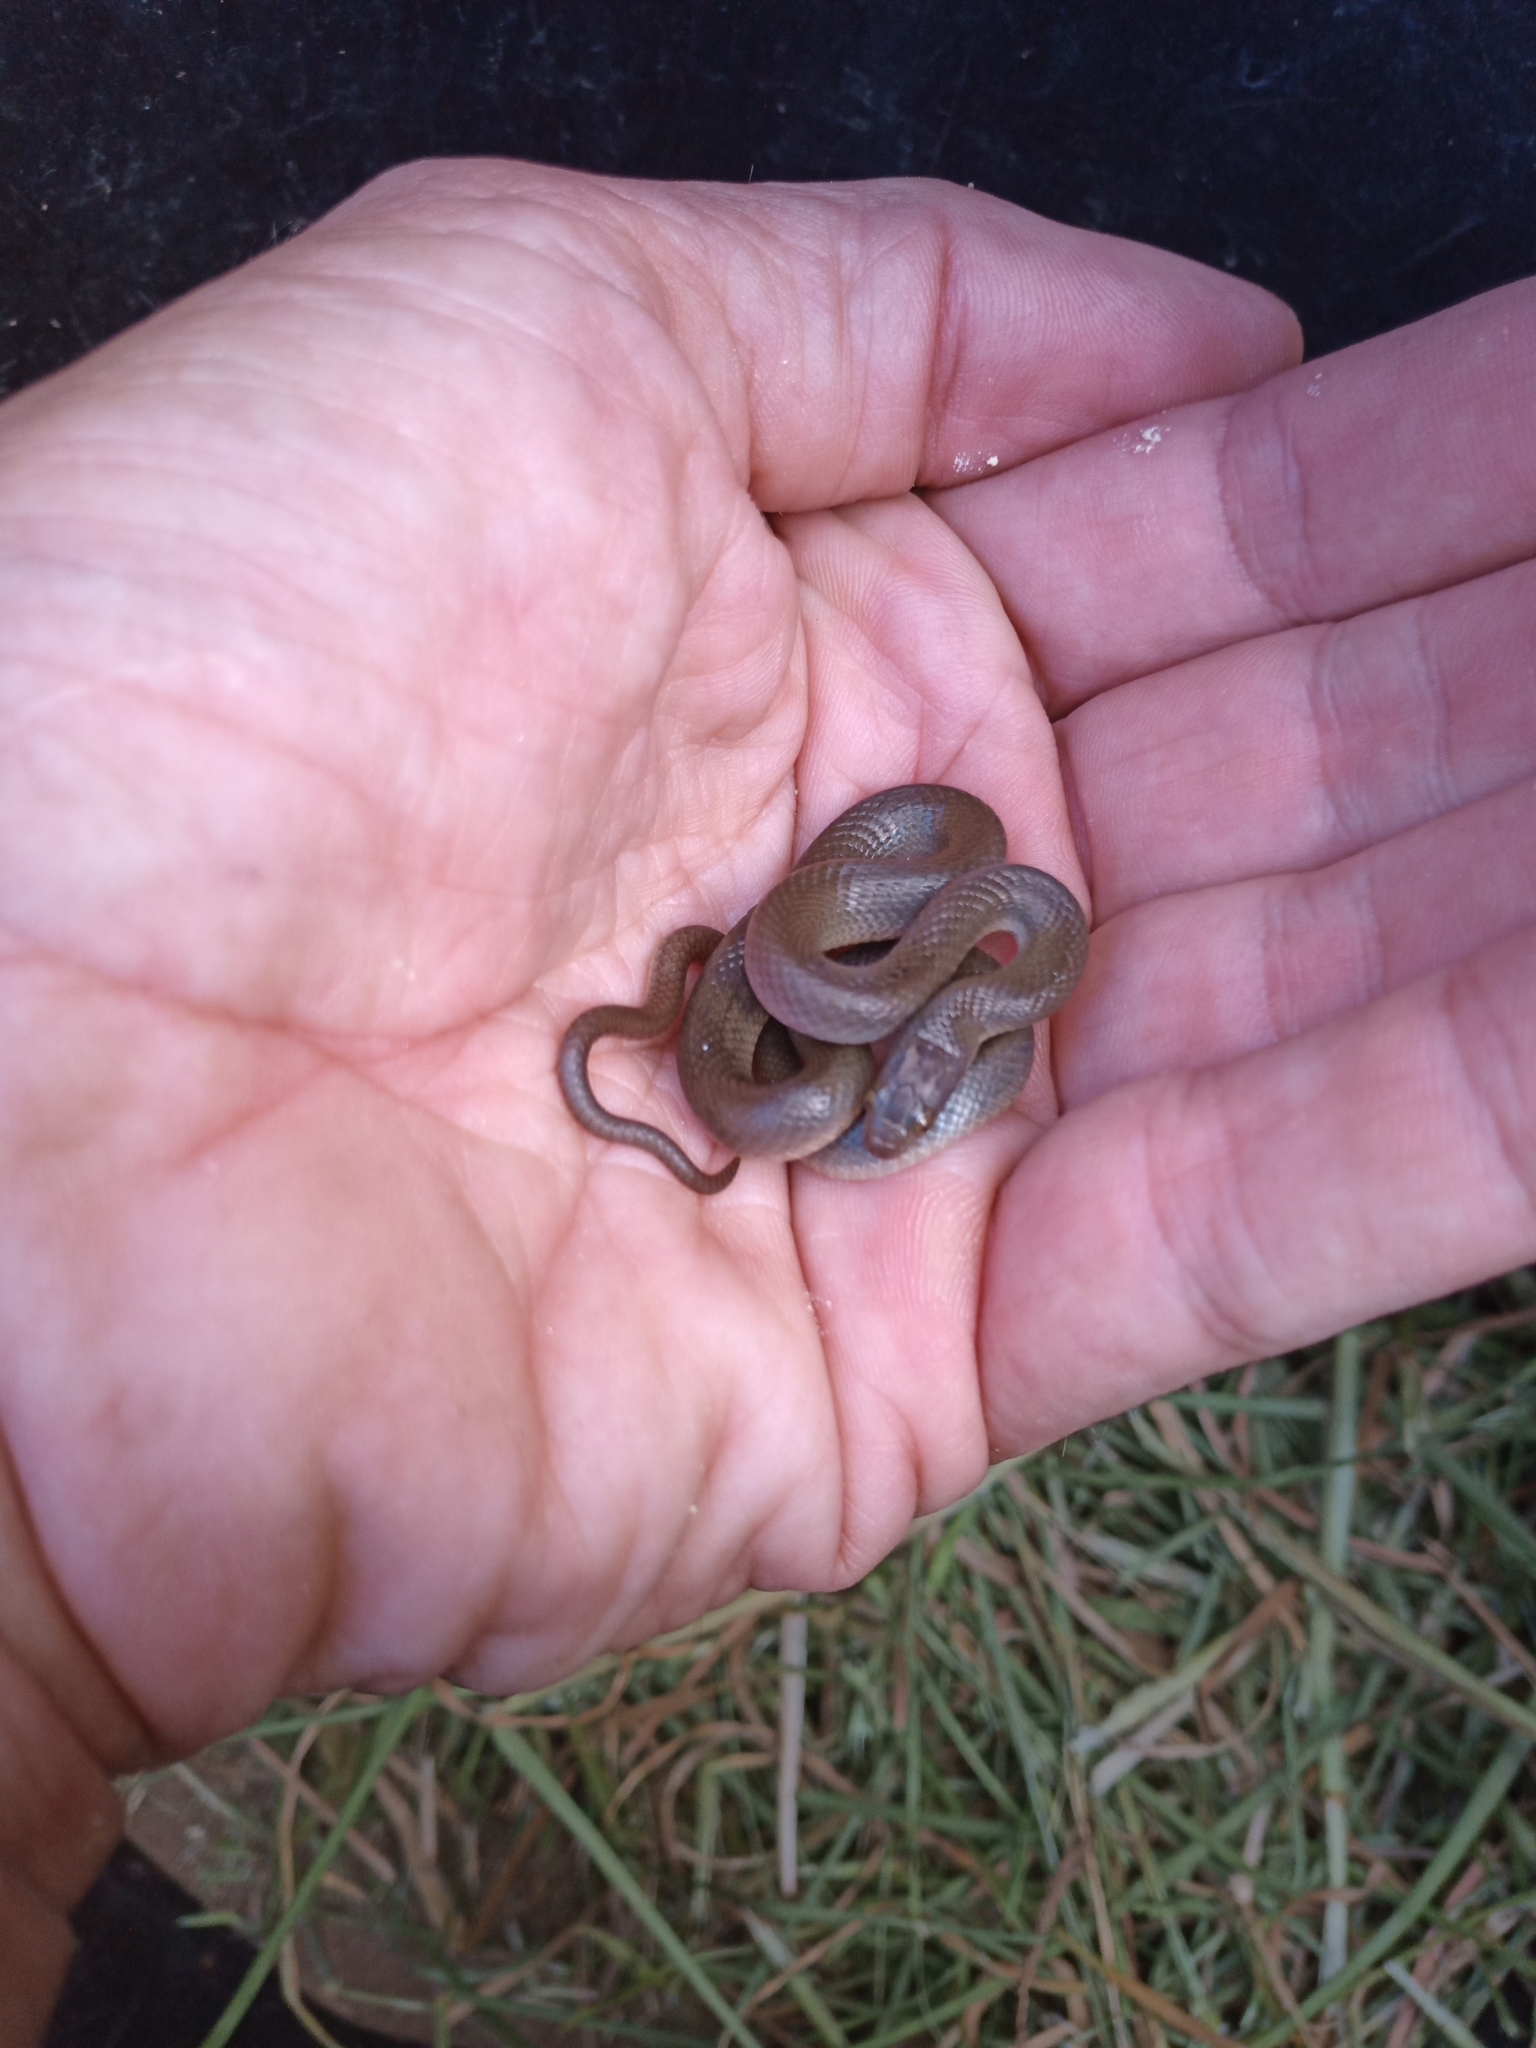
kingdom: Animalia
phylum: Chordata
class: Squamata
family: Lamprophiidae
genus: Lycodonomorphus
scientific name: Lycodonomorphus rufulus
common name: Brown water snake
